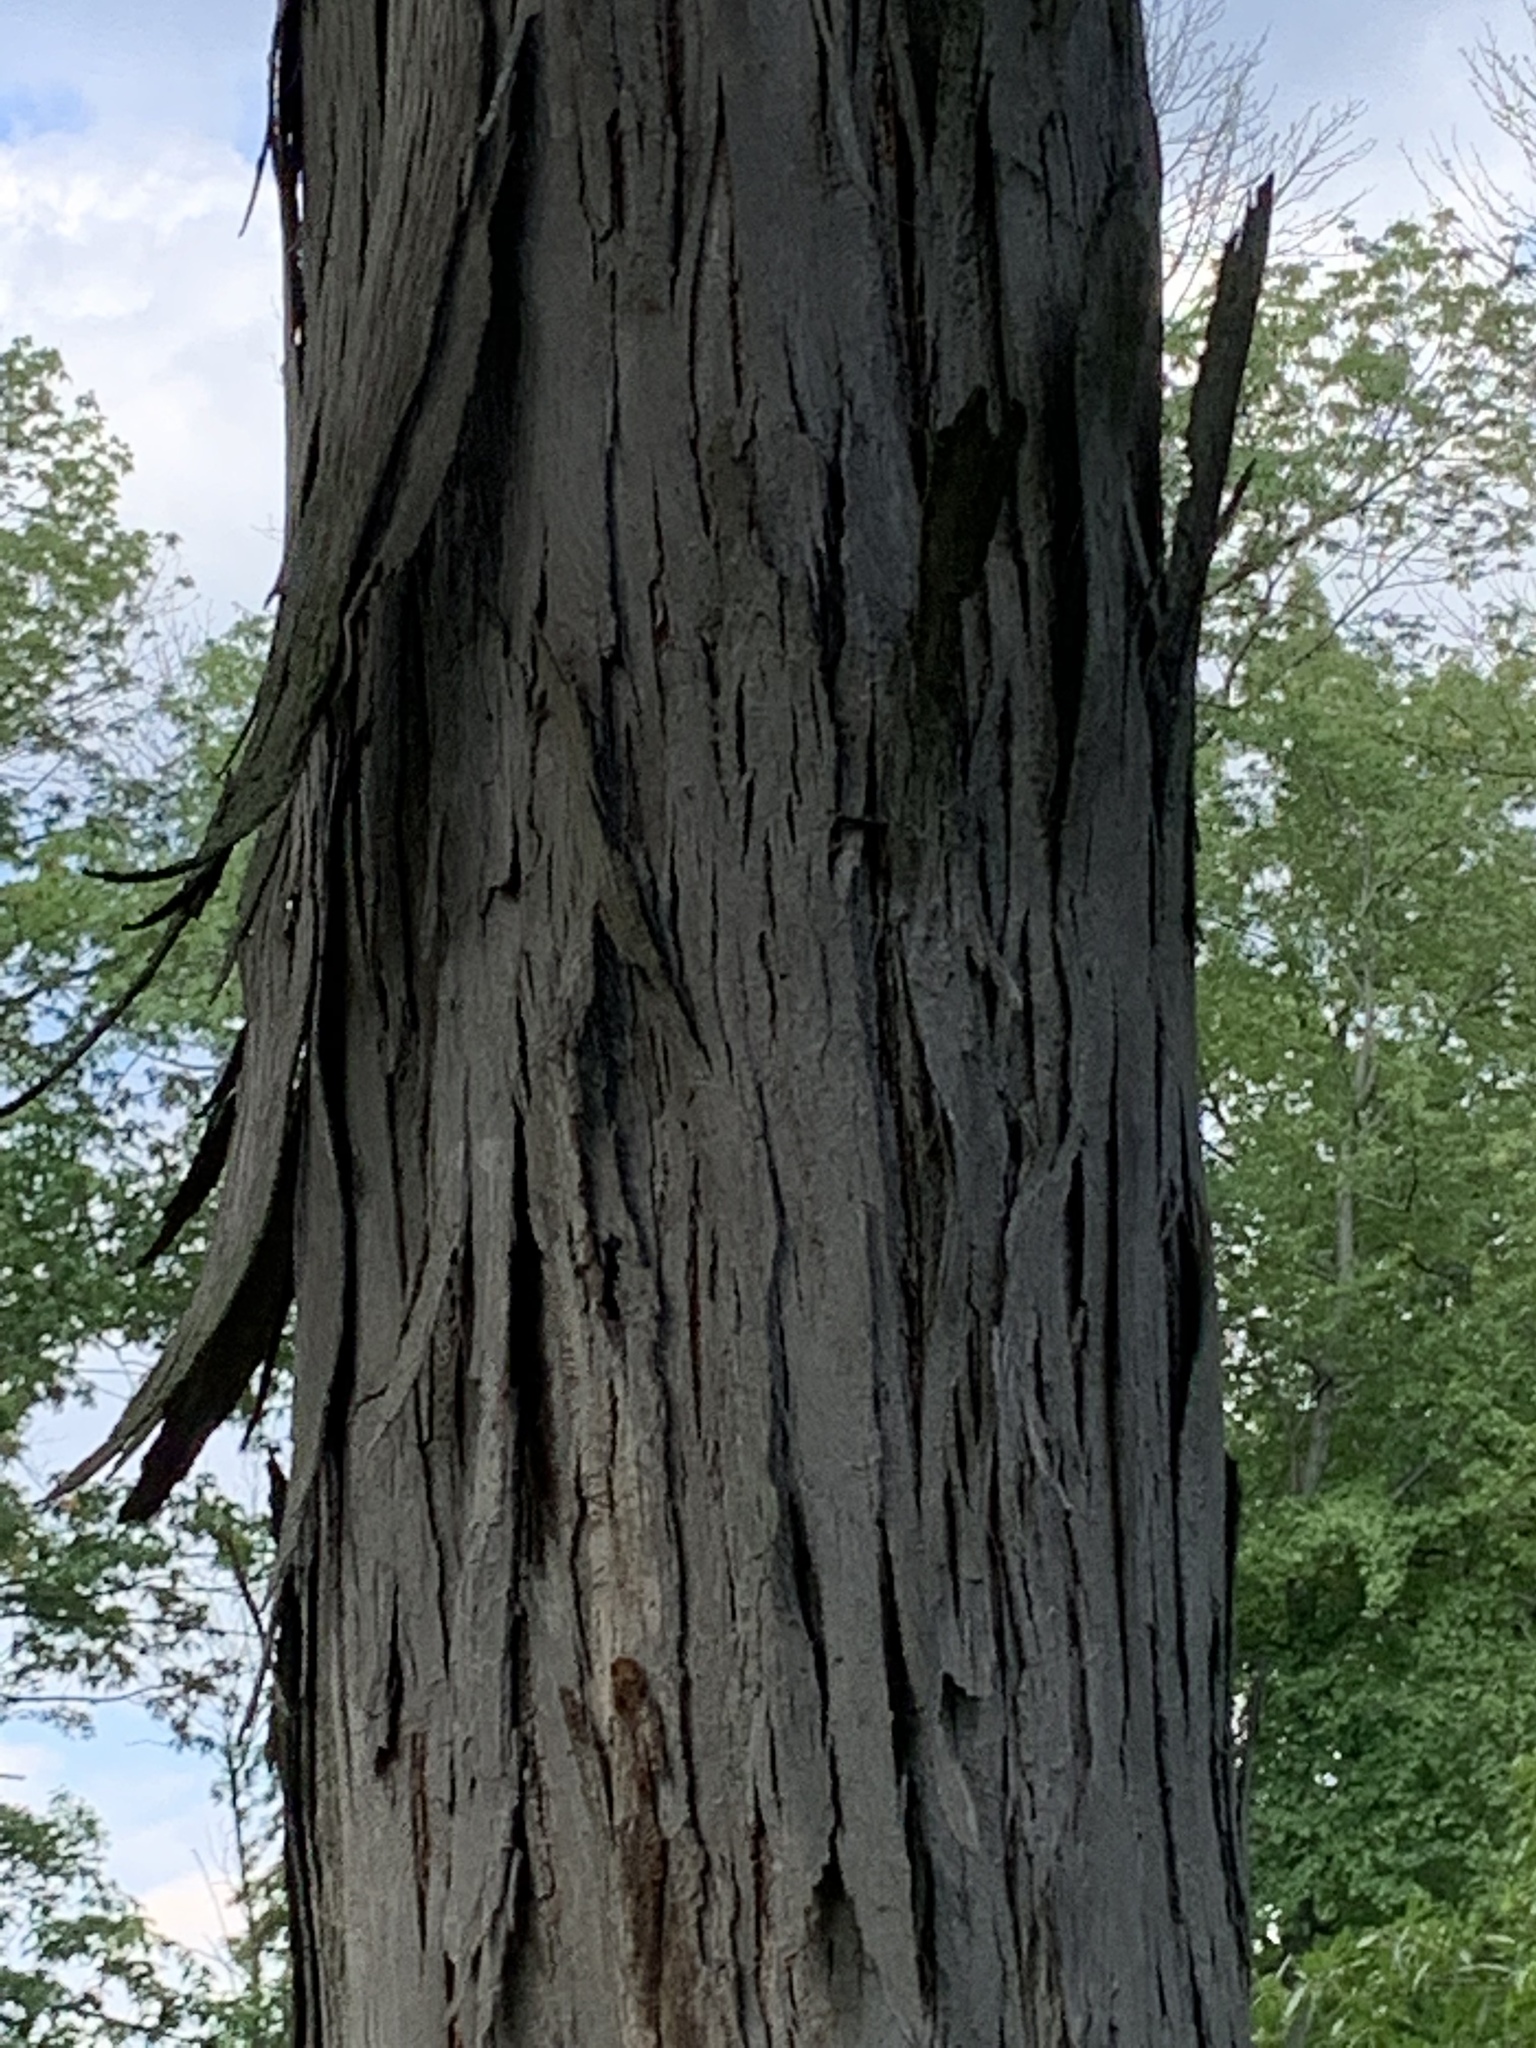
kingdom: Plantae
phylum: Tracheophyta
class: Magnoliopsida
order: Fagales
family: Juglandaceae
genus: Carya
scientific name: Carya ovata
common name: Shagbark hickory
